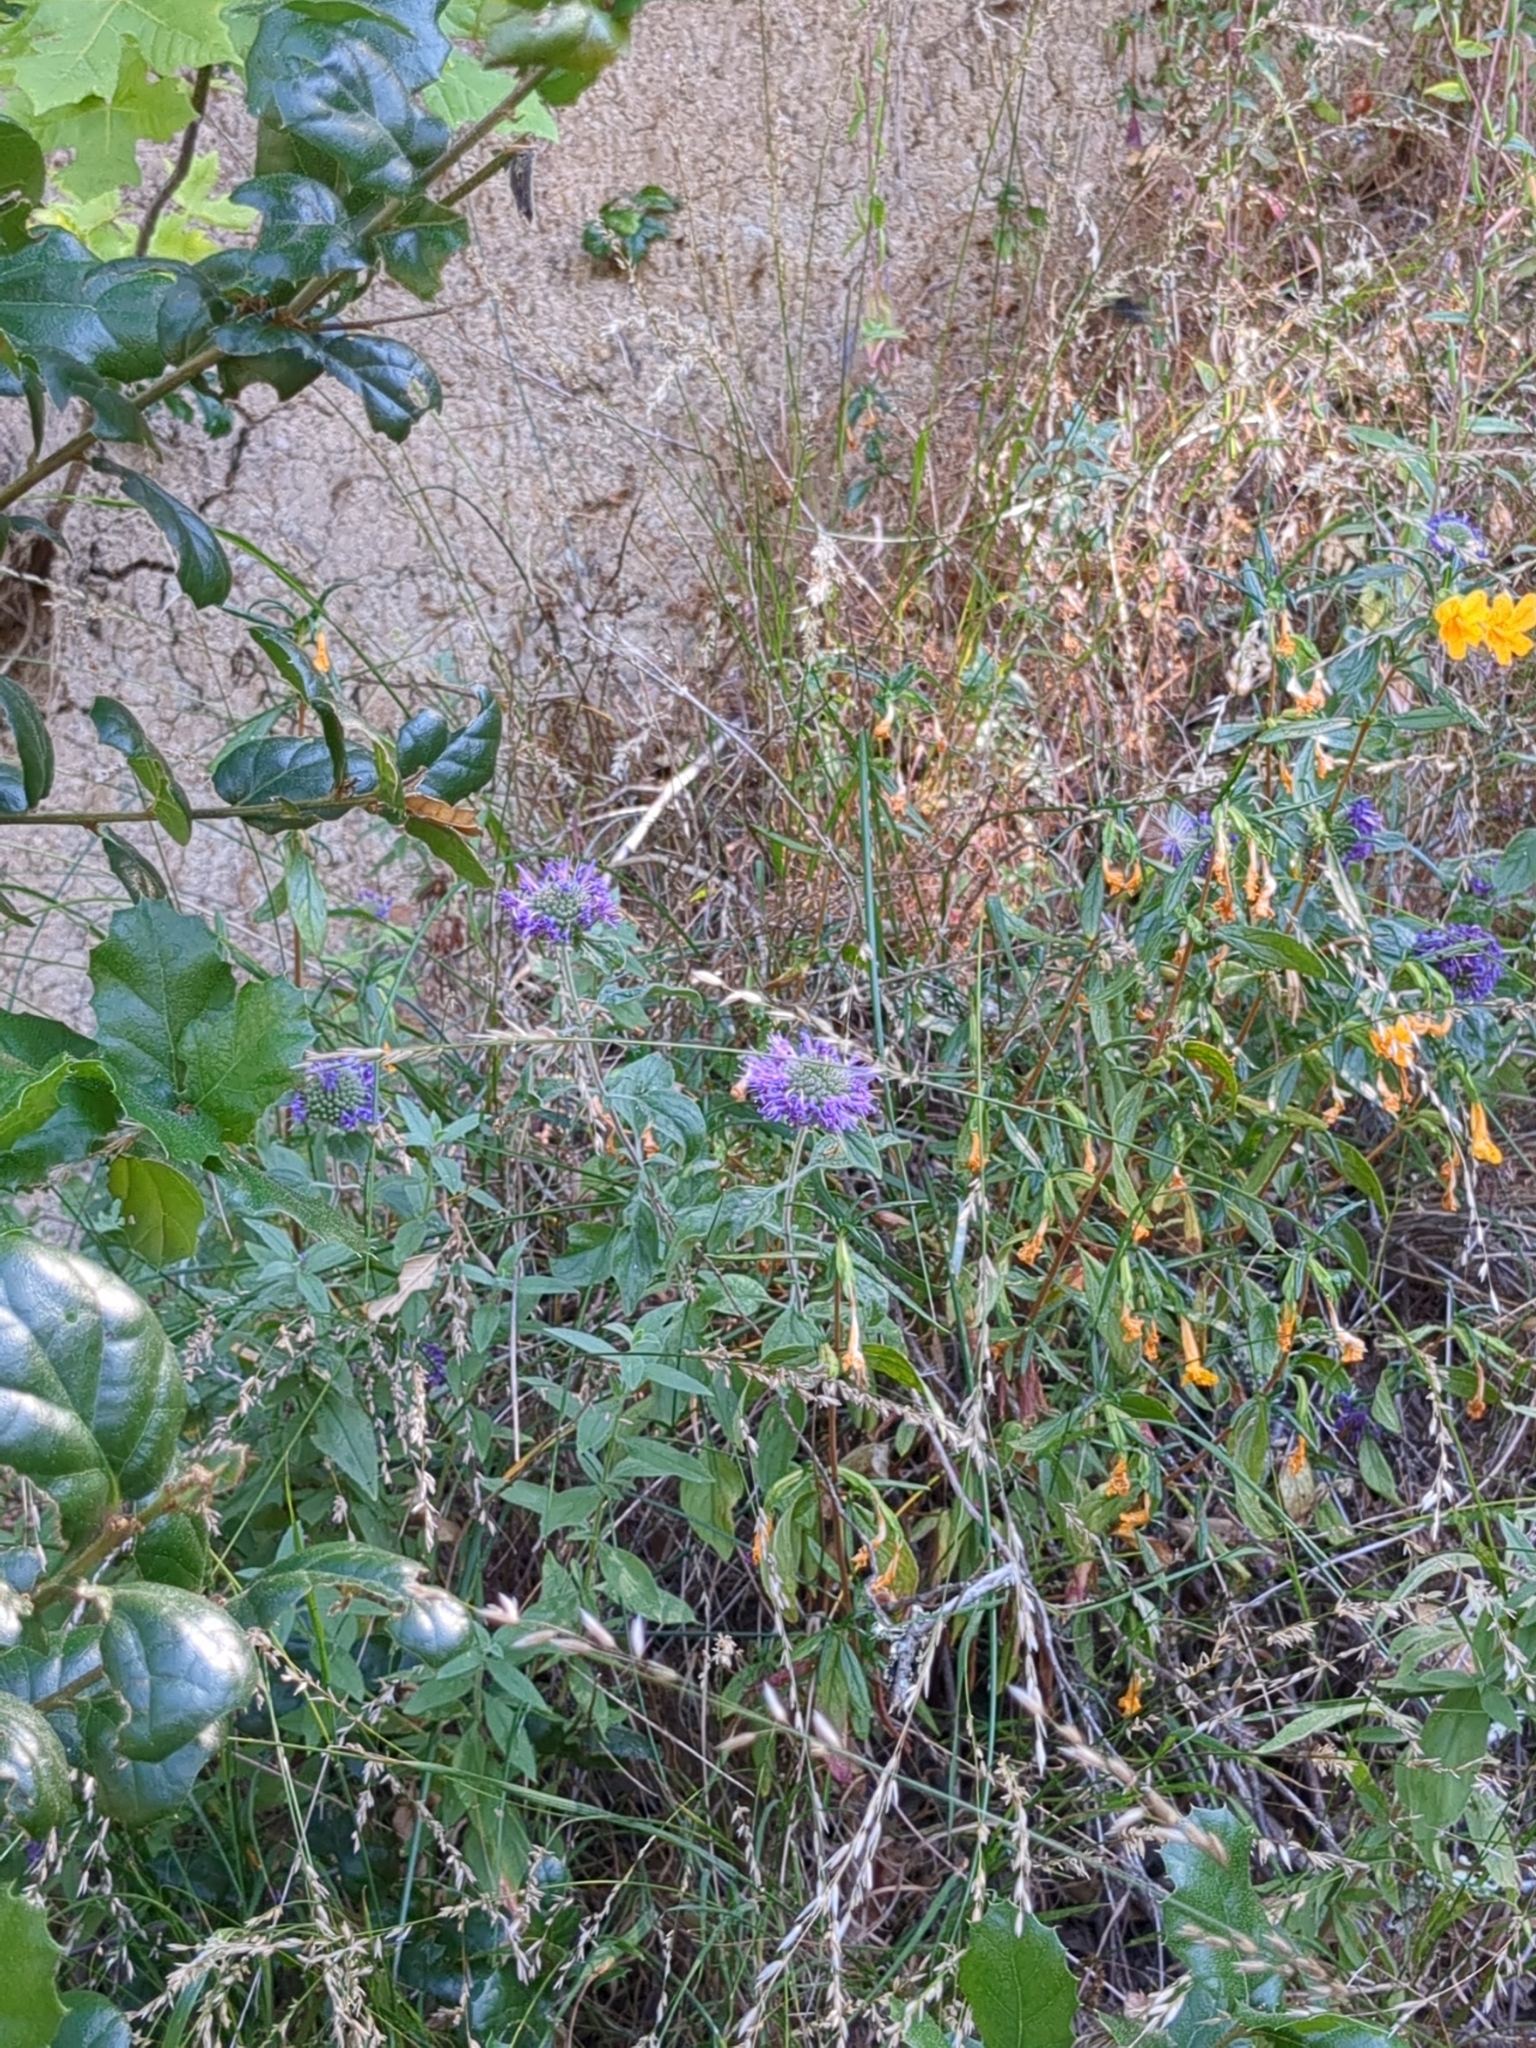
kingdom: Plantae
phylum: Tracheophyta
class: Magnoliopsida
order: Lamiales
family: Lamiaceae
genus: Monardella
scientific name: Monardella odoratissima
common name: Pacific monardella
